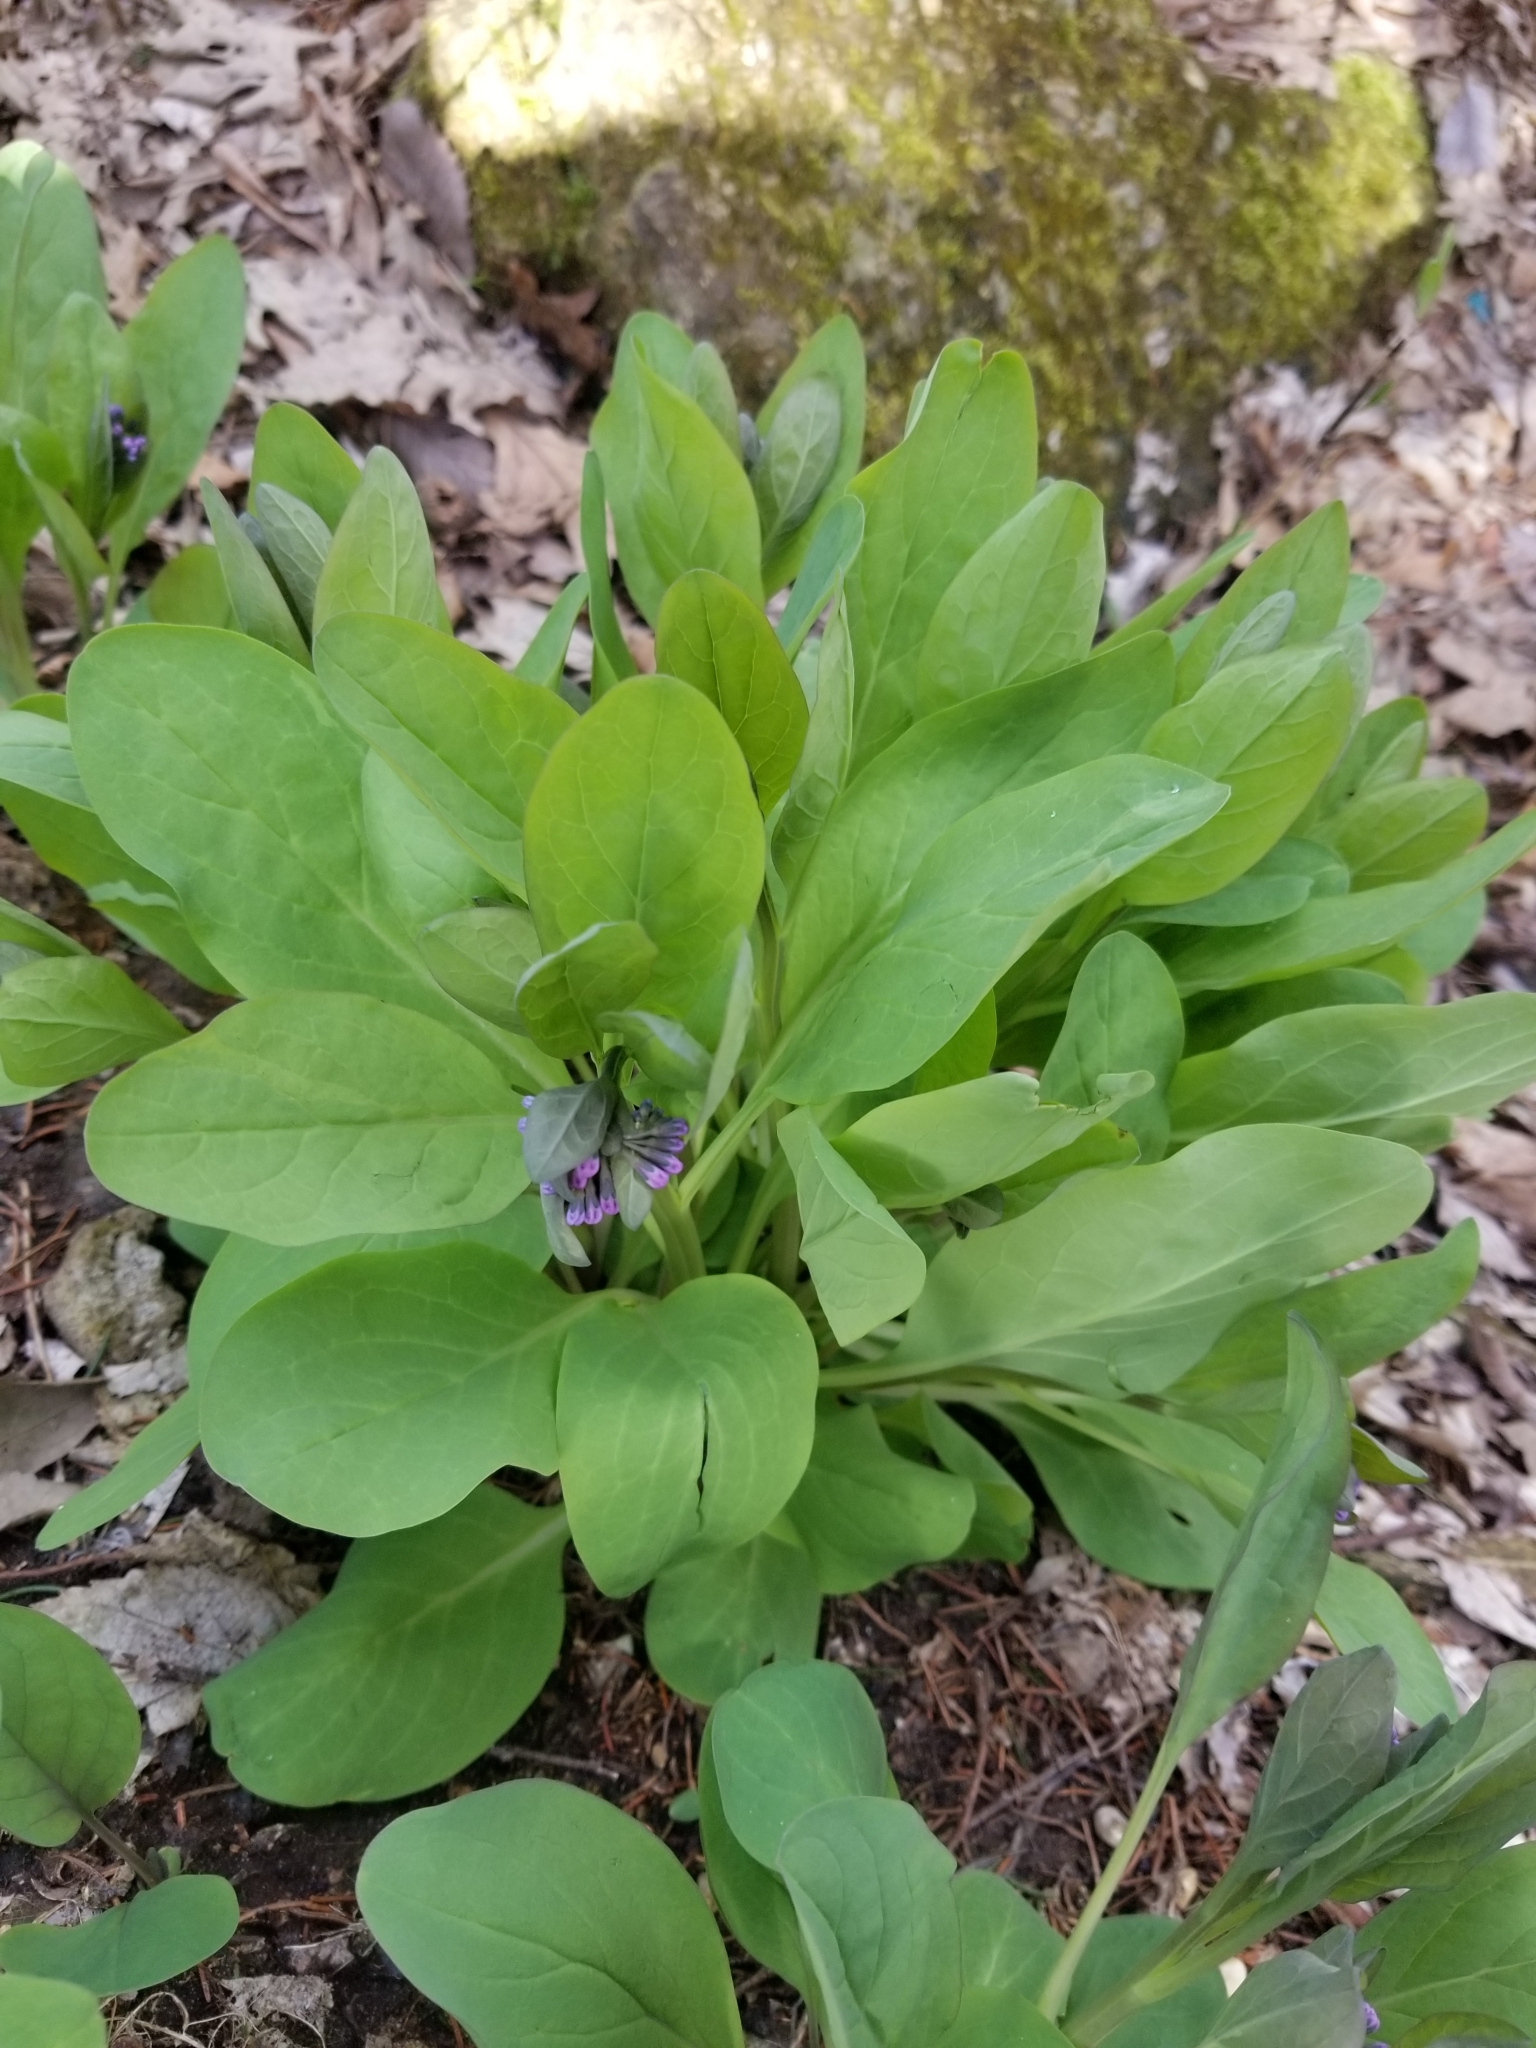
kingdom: Plantae
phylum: Tracheophyta
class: Magnoliopsida
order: Boraginales
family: Boraginaceae
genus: Mertensia
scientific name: Mertensia virginica
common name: Virginia bluebells
